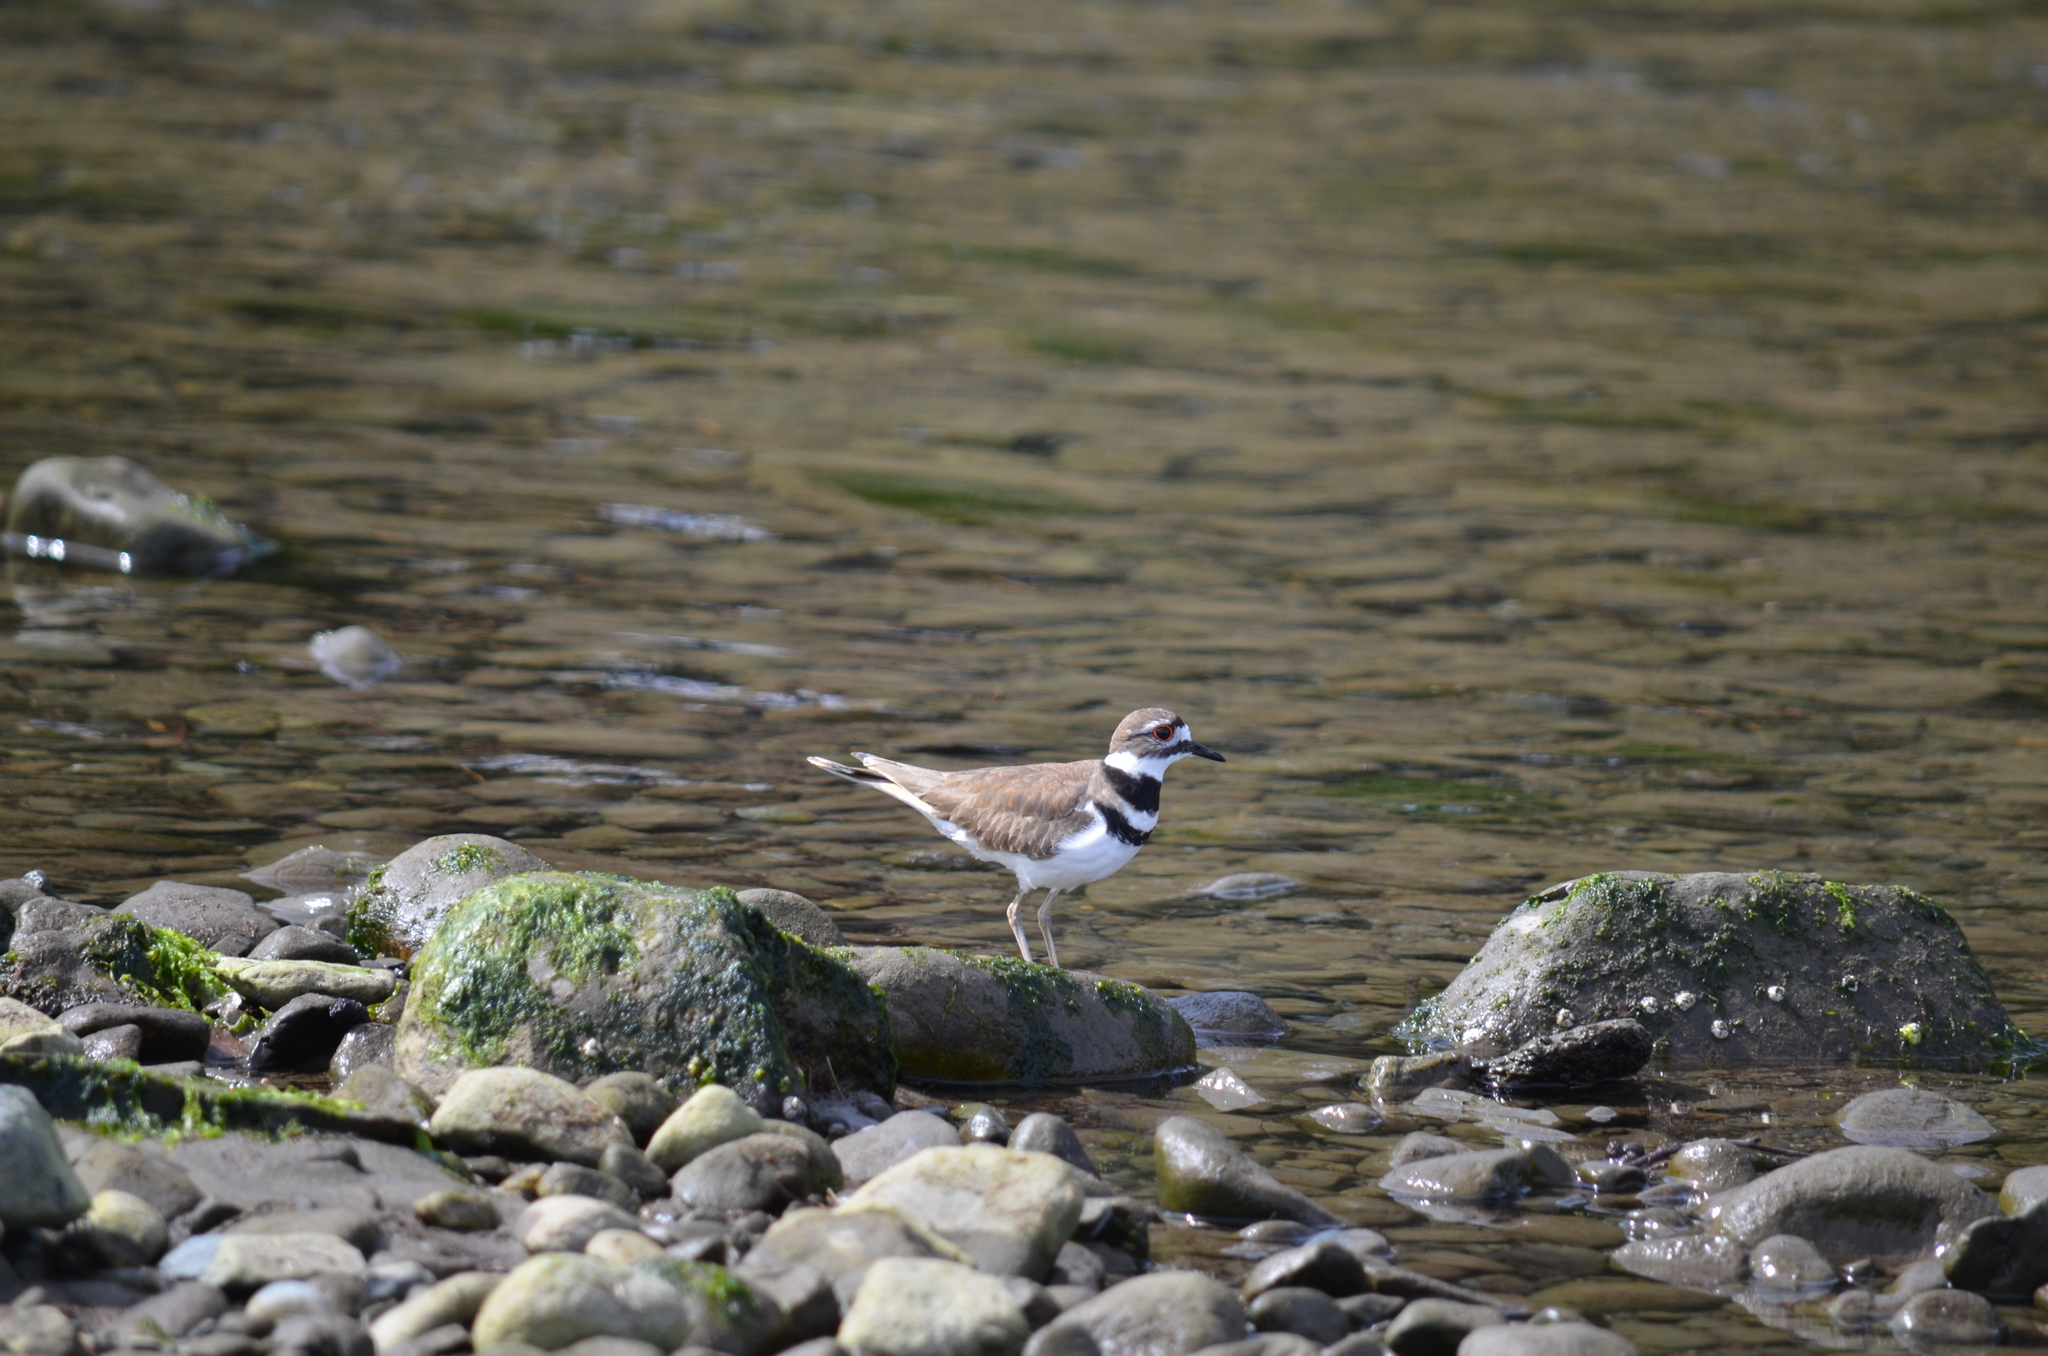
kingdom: Animalia
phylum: Chordata
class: Aves
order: Charadriiformes
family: Charadriidae
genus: Charadrius
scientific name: Charadrius vociferus
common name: Killdeer
